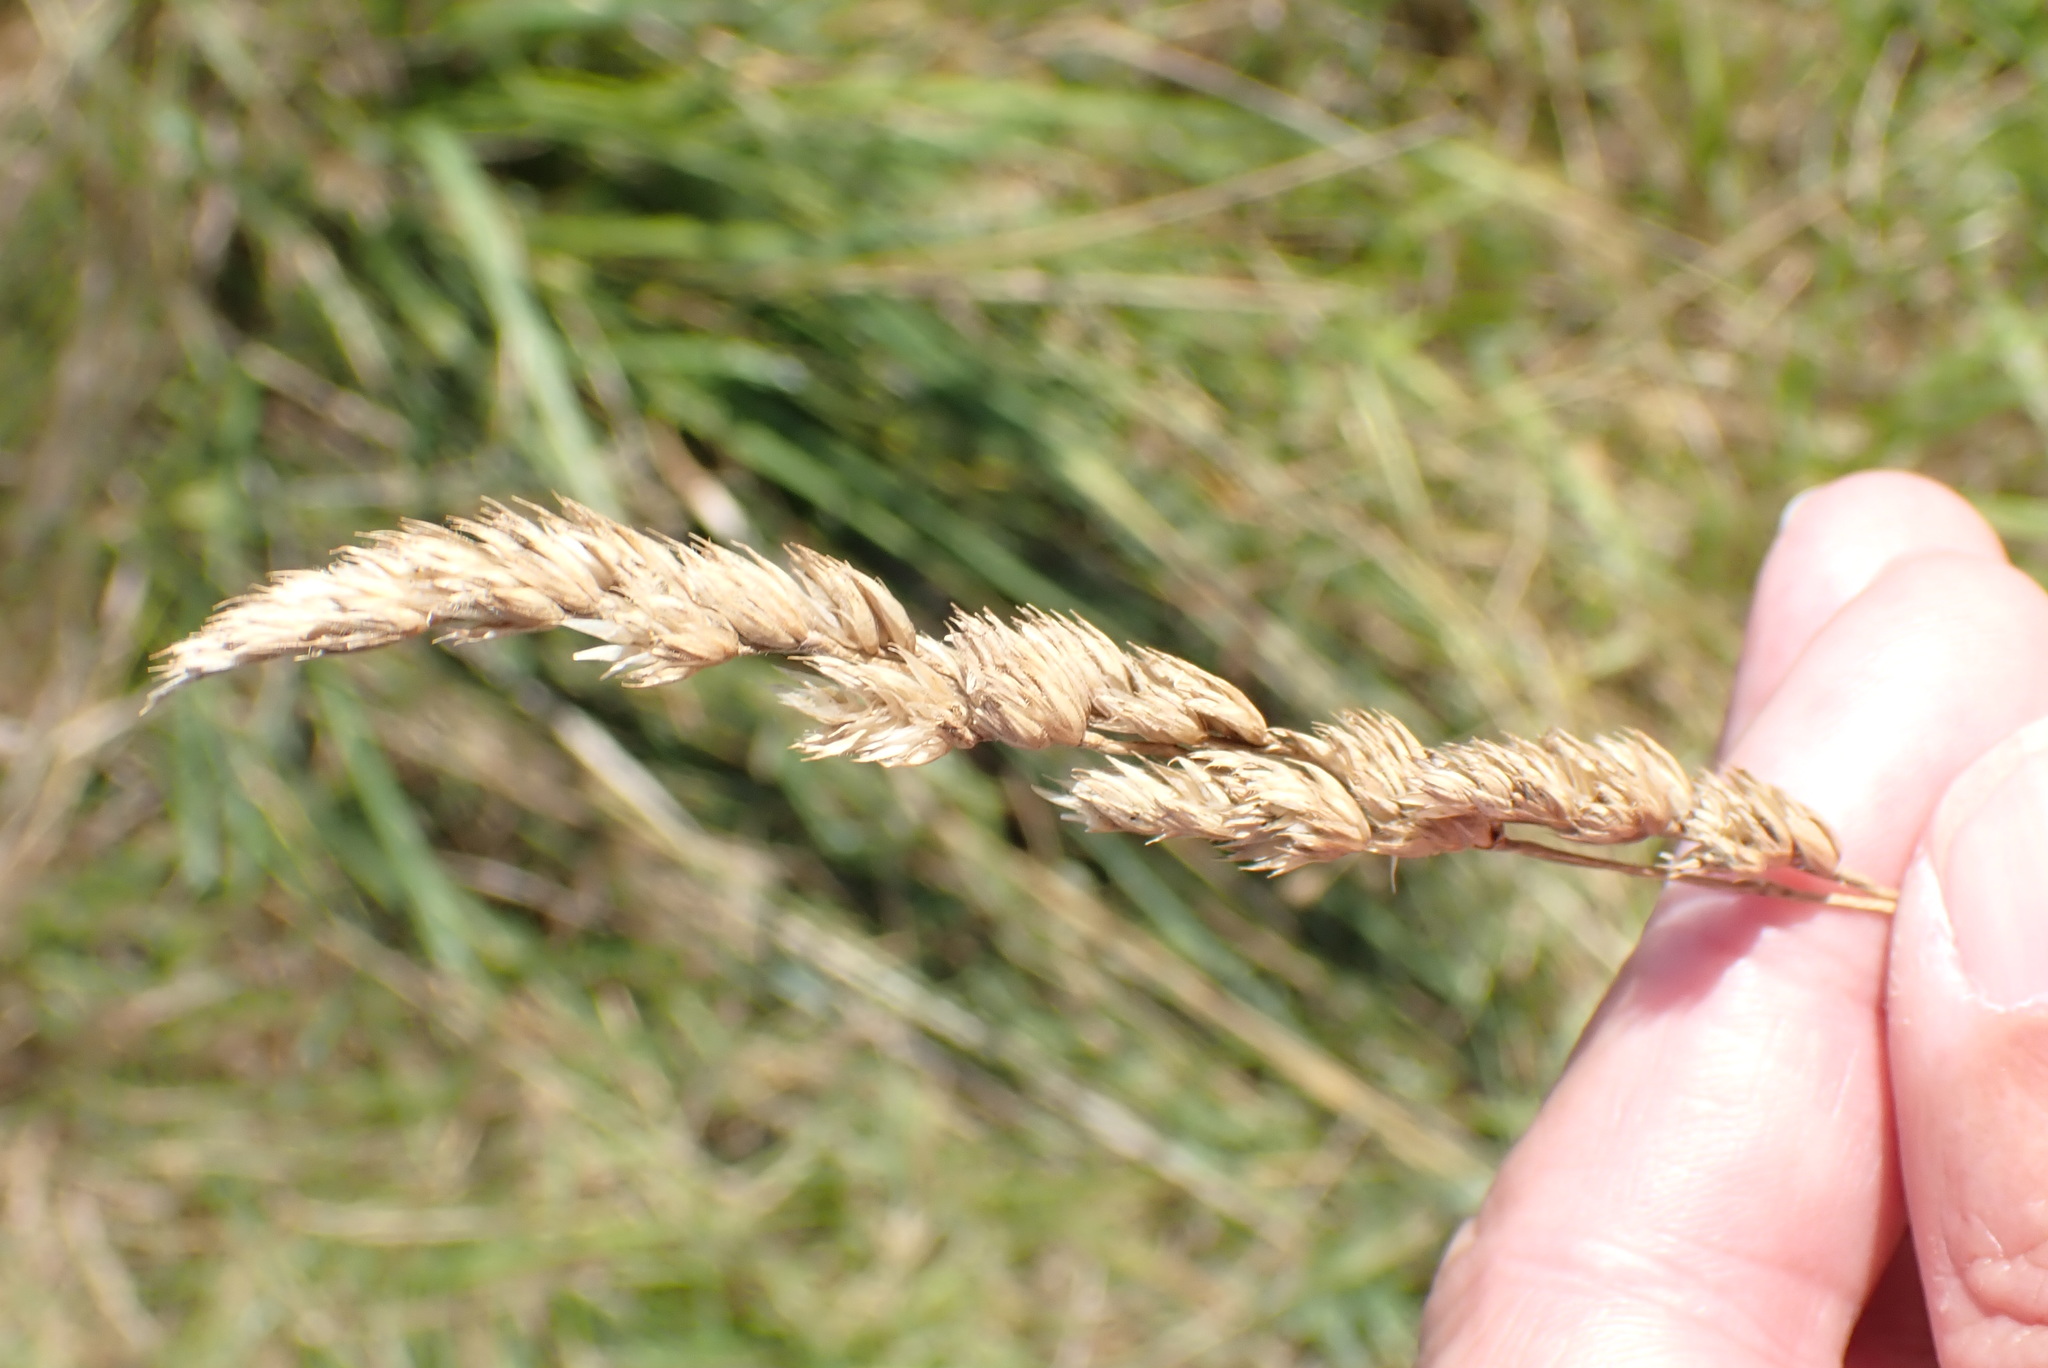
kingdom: Plantae
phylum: Tracheophyta
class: Liliopsida
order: Poales
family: Poaceae
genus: Dactylis
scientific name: Dactylis glomerata
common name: Orchardgrass
